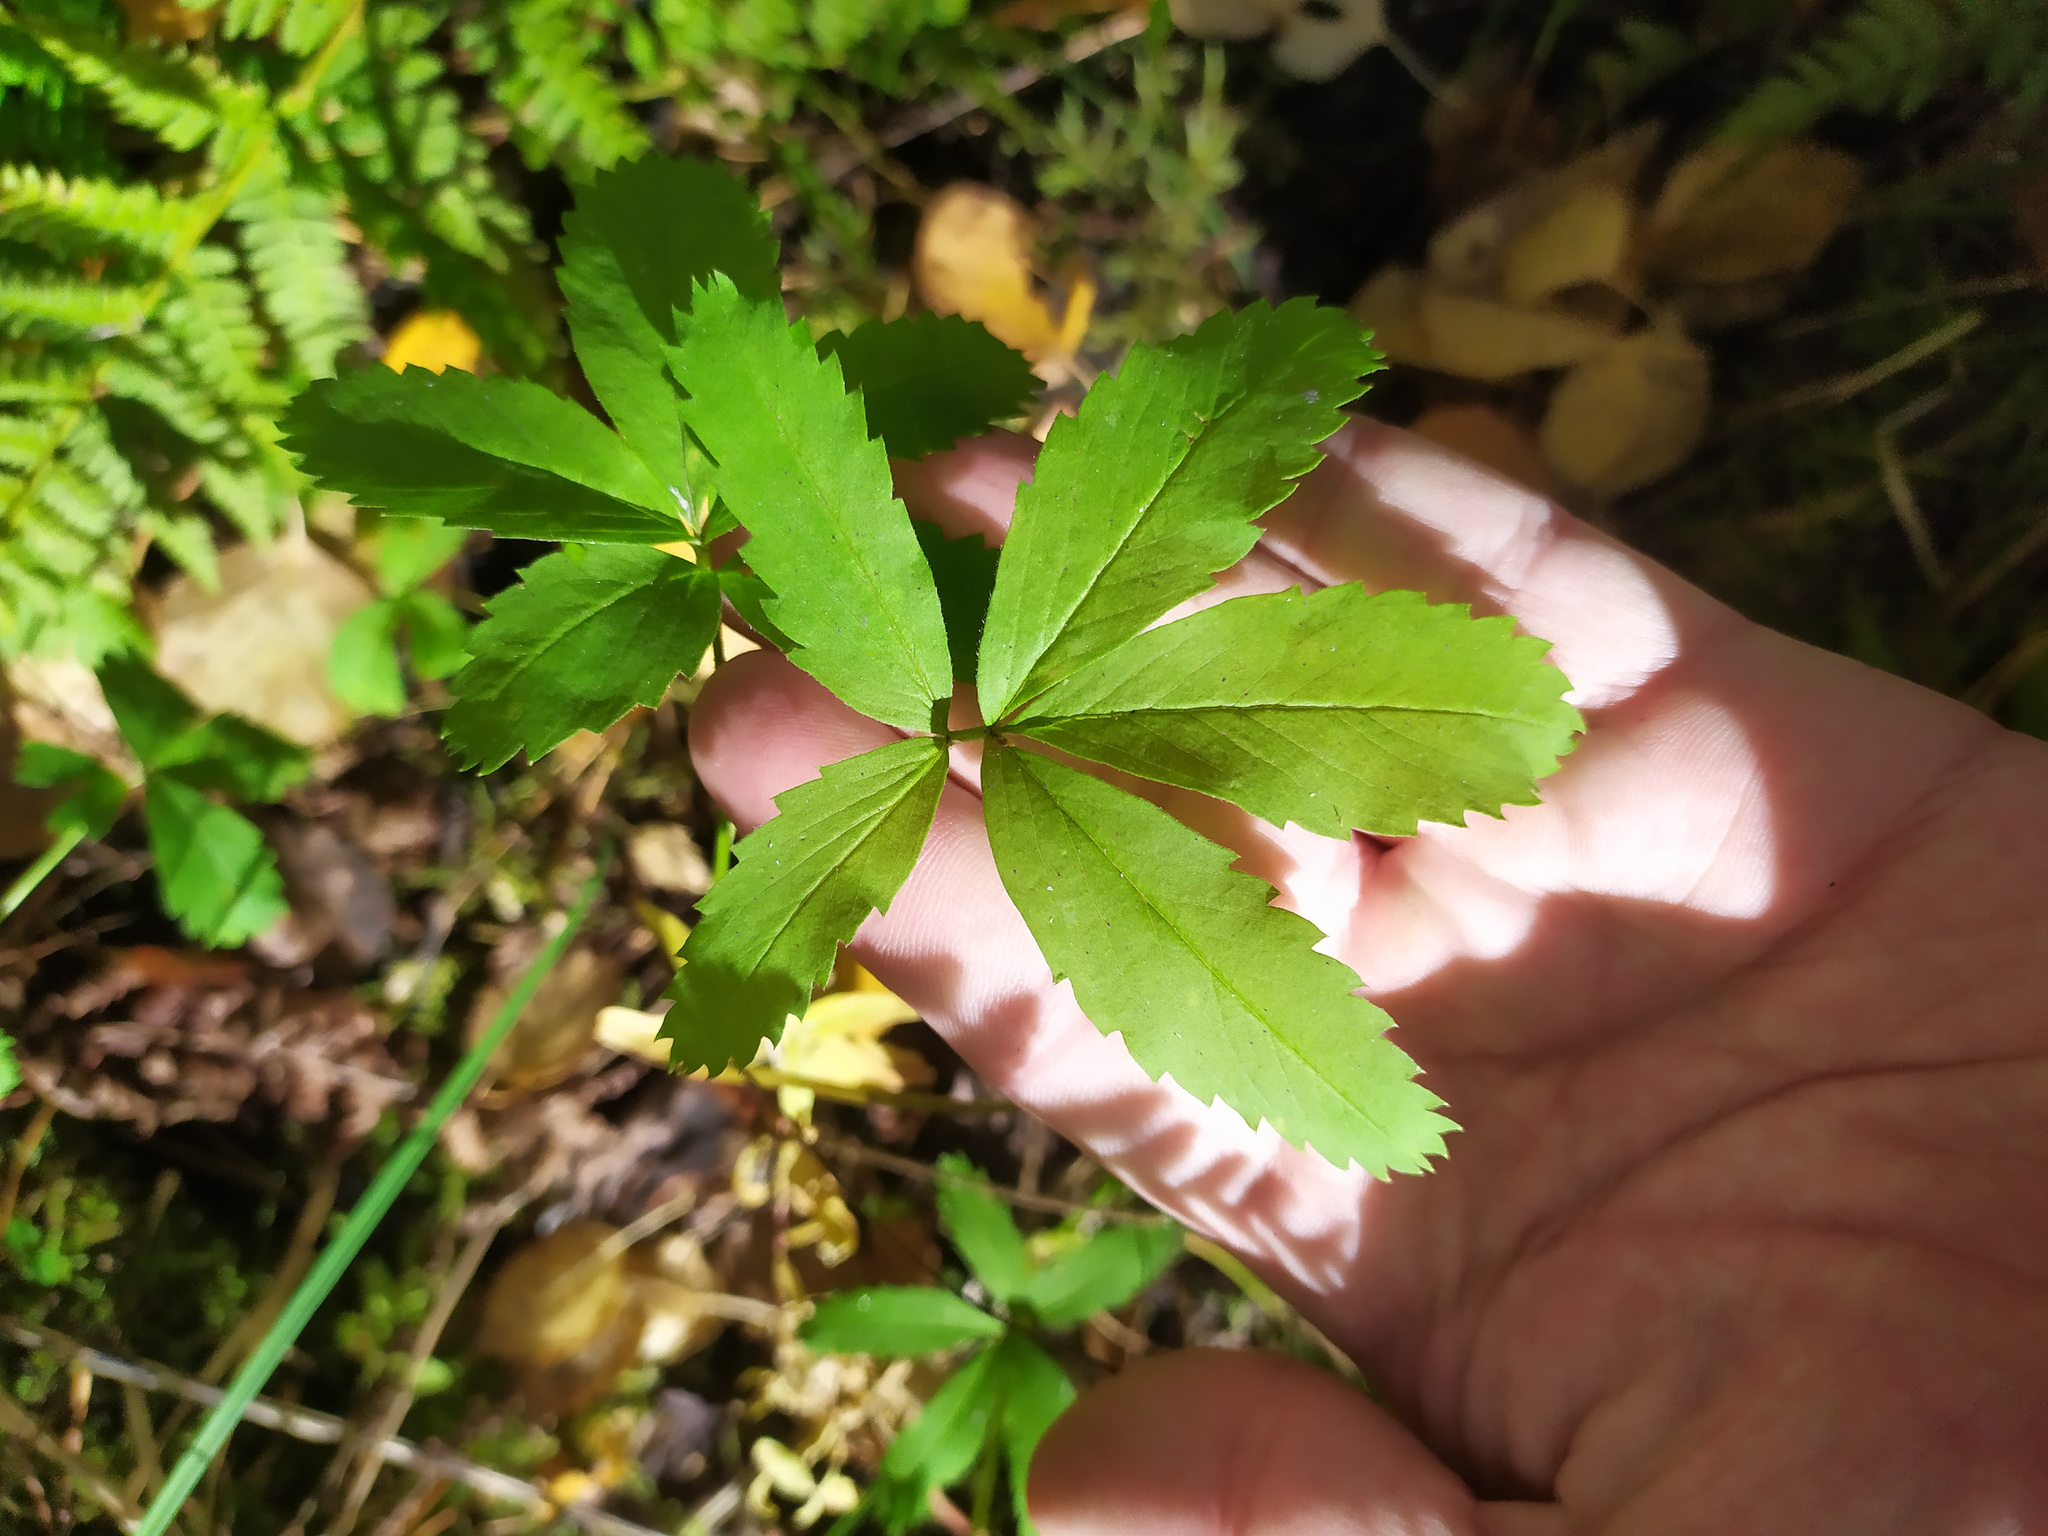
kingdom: Plantae
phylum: Tracheophyta
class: Magnoliopsida
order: Rosales
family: Rosaceae
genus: Comarum
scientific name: Comarum palustre
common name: Marsh cinquefoil
